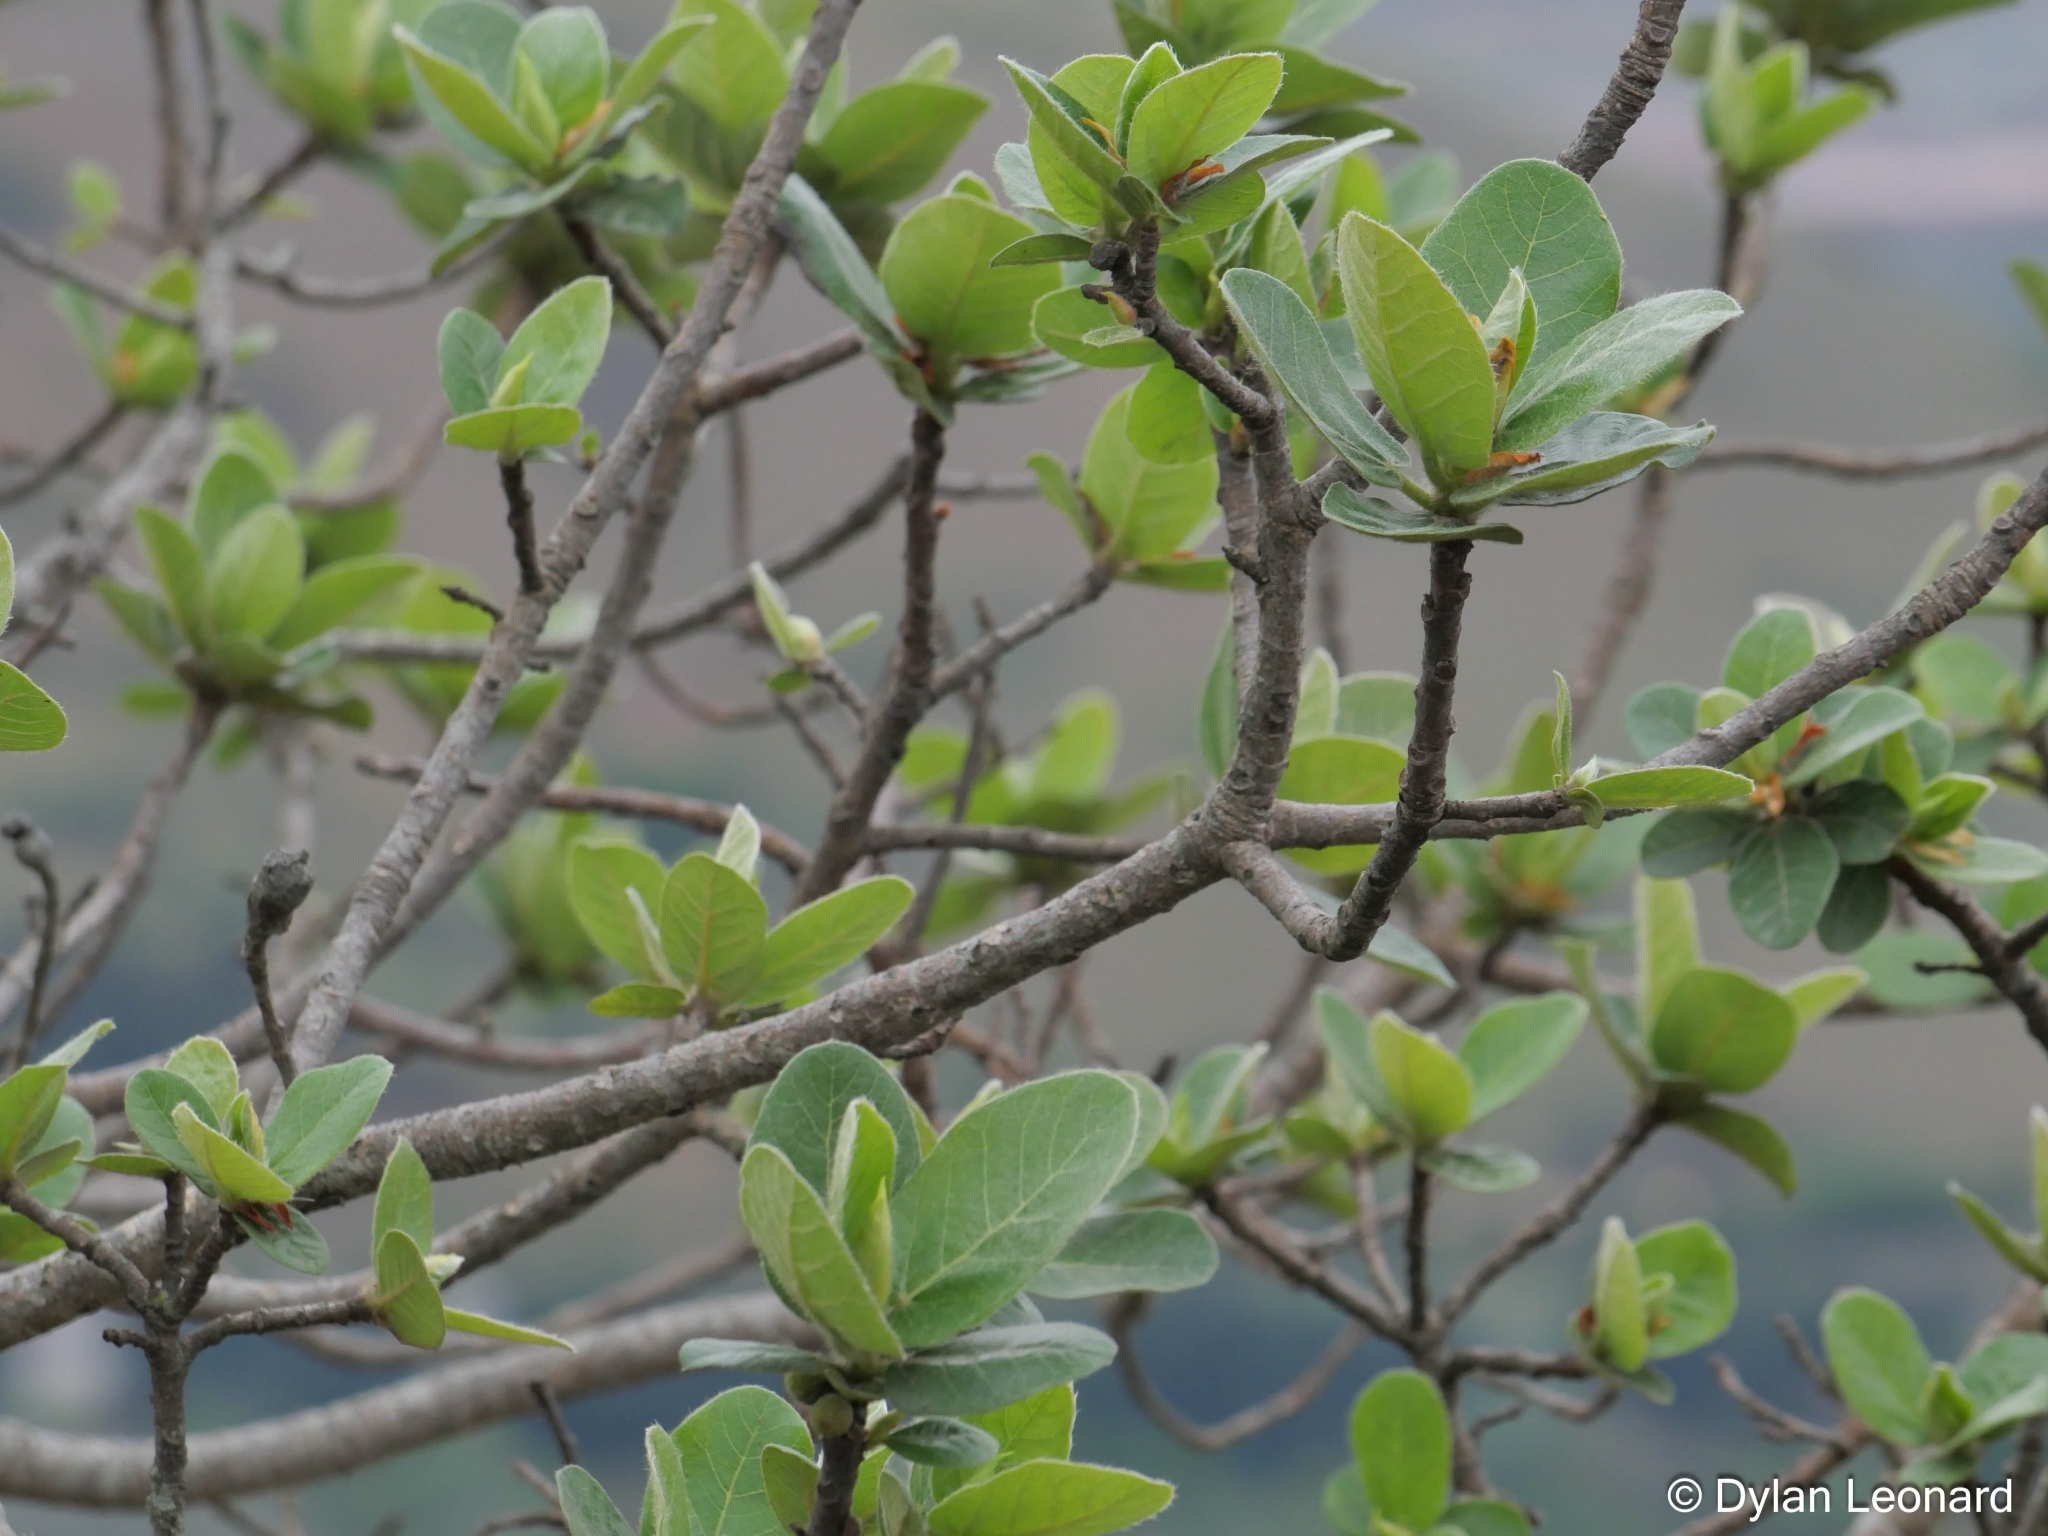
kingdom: Plantae
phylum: Tracheophyta
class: Magnoliopsida
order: Rosales
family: Moraceae
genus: Ficus
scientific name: Ficus glumosa
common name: Hairy rock fig
